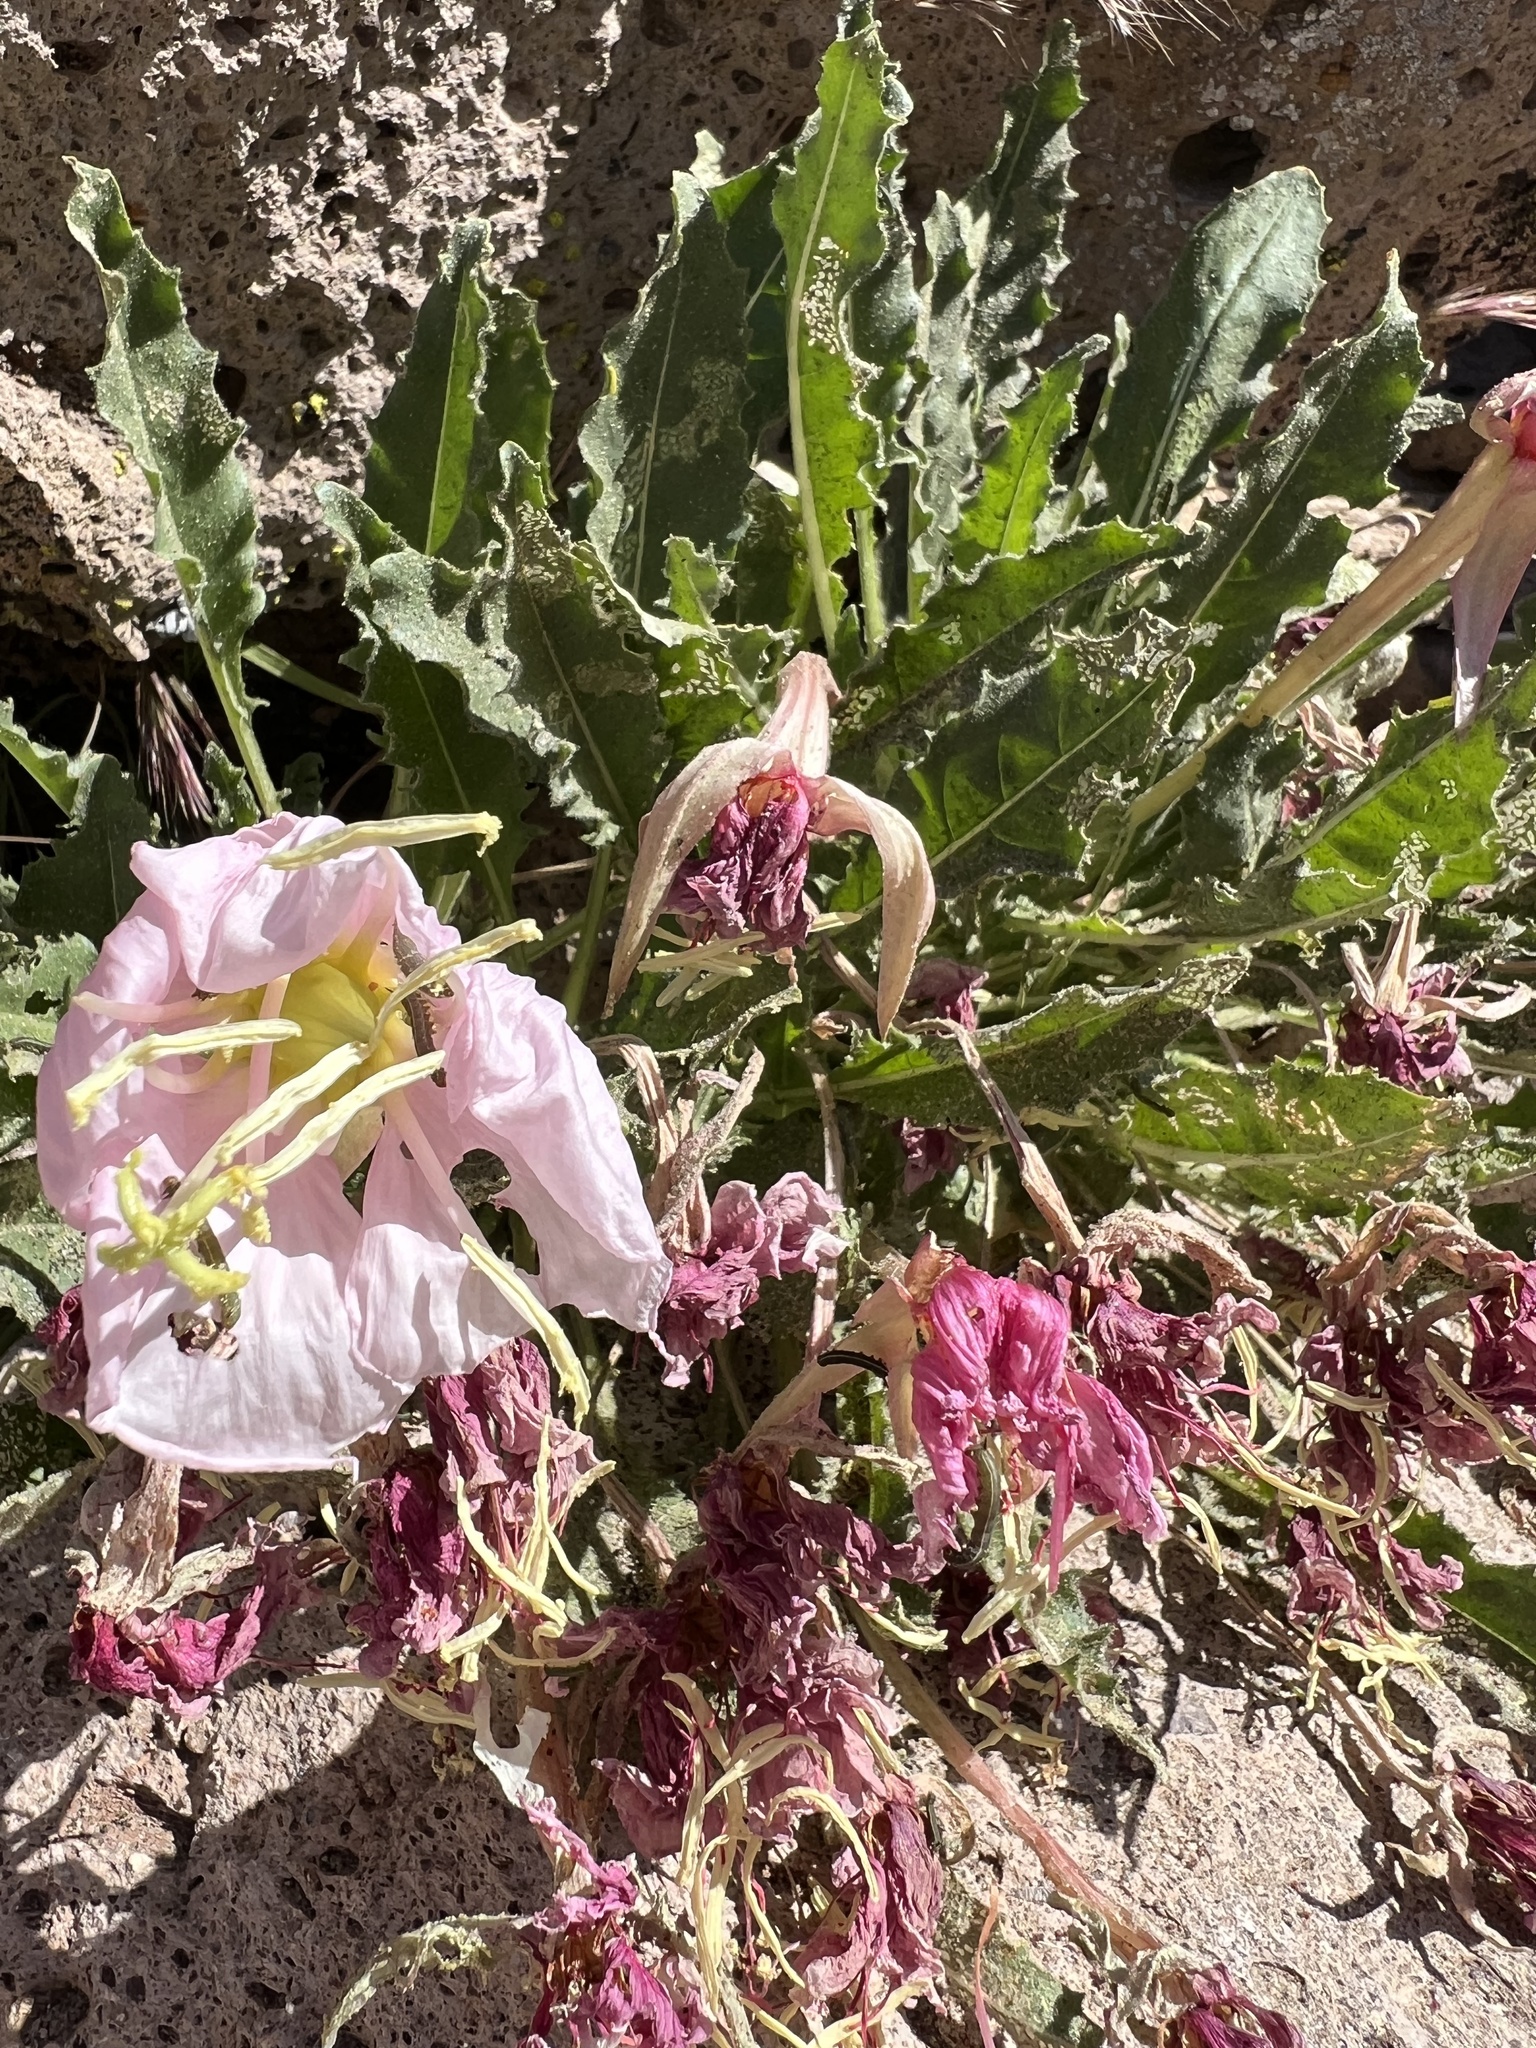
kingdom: Plantae
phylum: Tracheophyta
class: Magnoliopsida
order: Myrtales
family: Onagraceae
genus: Oenothera
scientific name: Oenothera cespitosa
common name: Tufted evening-primrose
